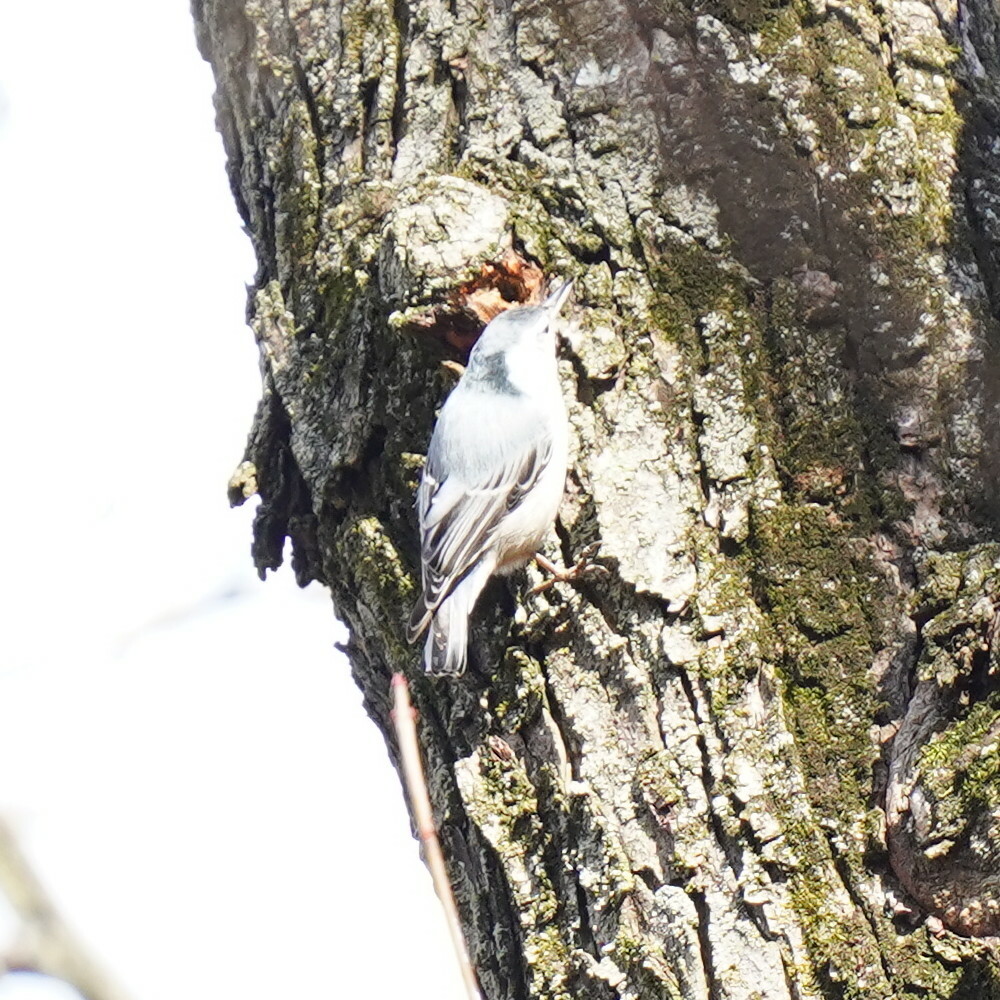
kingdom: Animalia
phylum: Chordata
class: Aves
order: Passeriformes
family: Sittidae
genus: Sitta
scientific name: Sitta carolinensis
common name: White-breasted nuthatch
